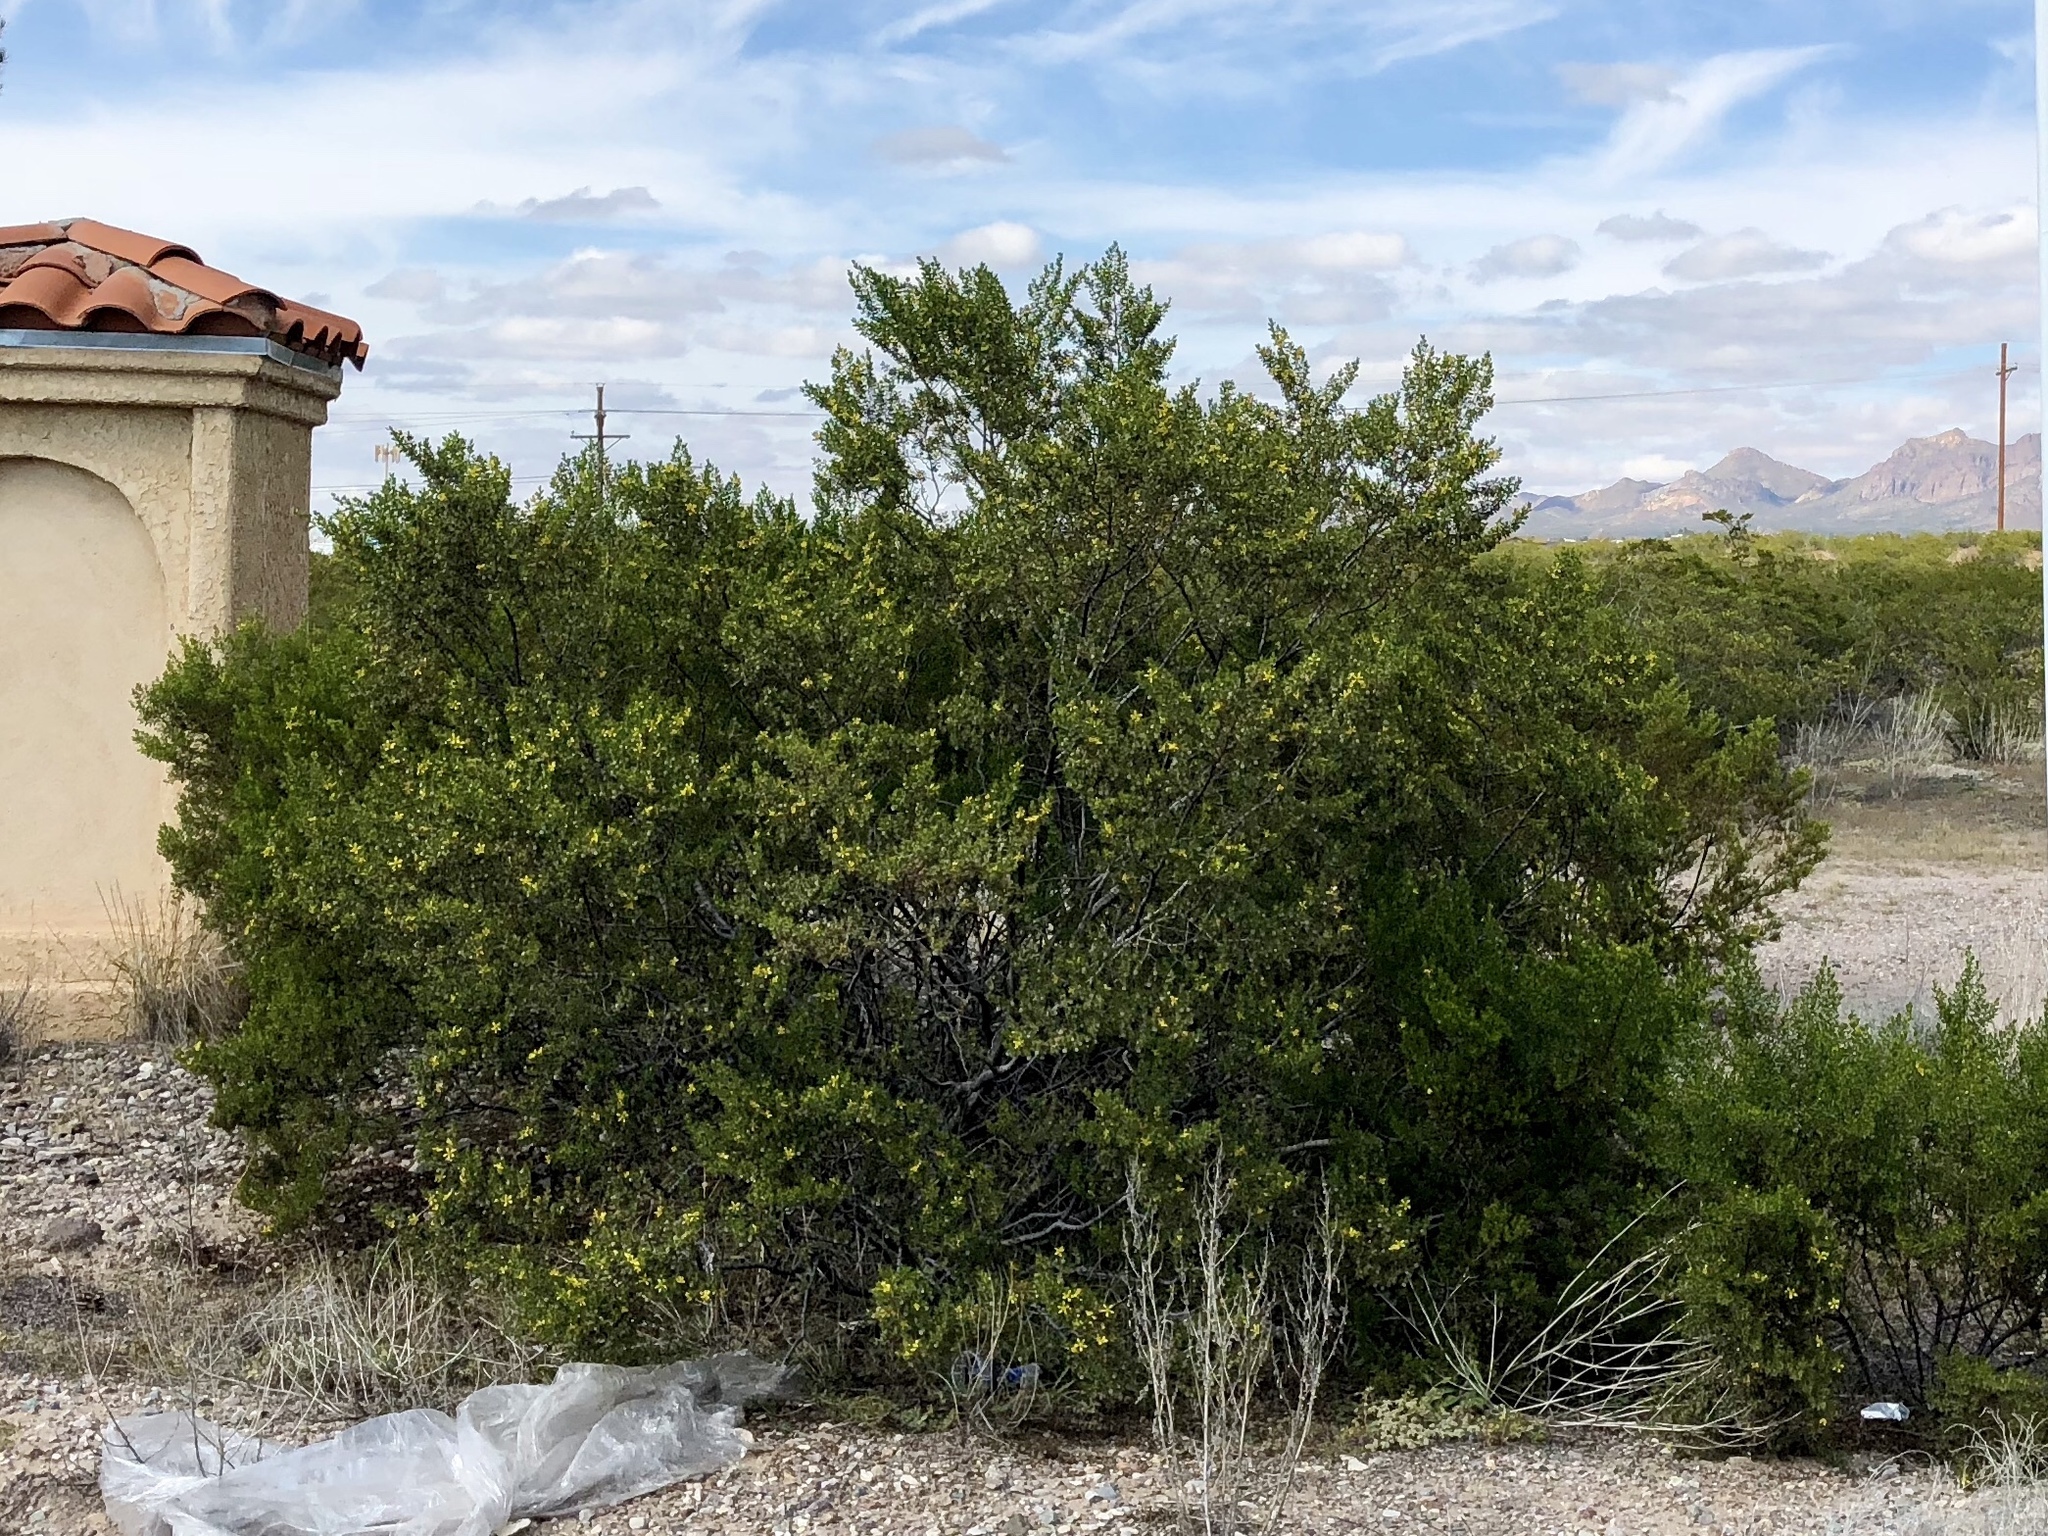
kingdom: Plantae
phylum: Tracheophyta
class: Magnoliopsida
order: Zygophyllales
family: Zygophyllaceae
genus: Larrea
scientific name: Larrea tridentata
